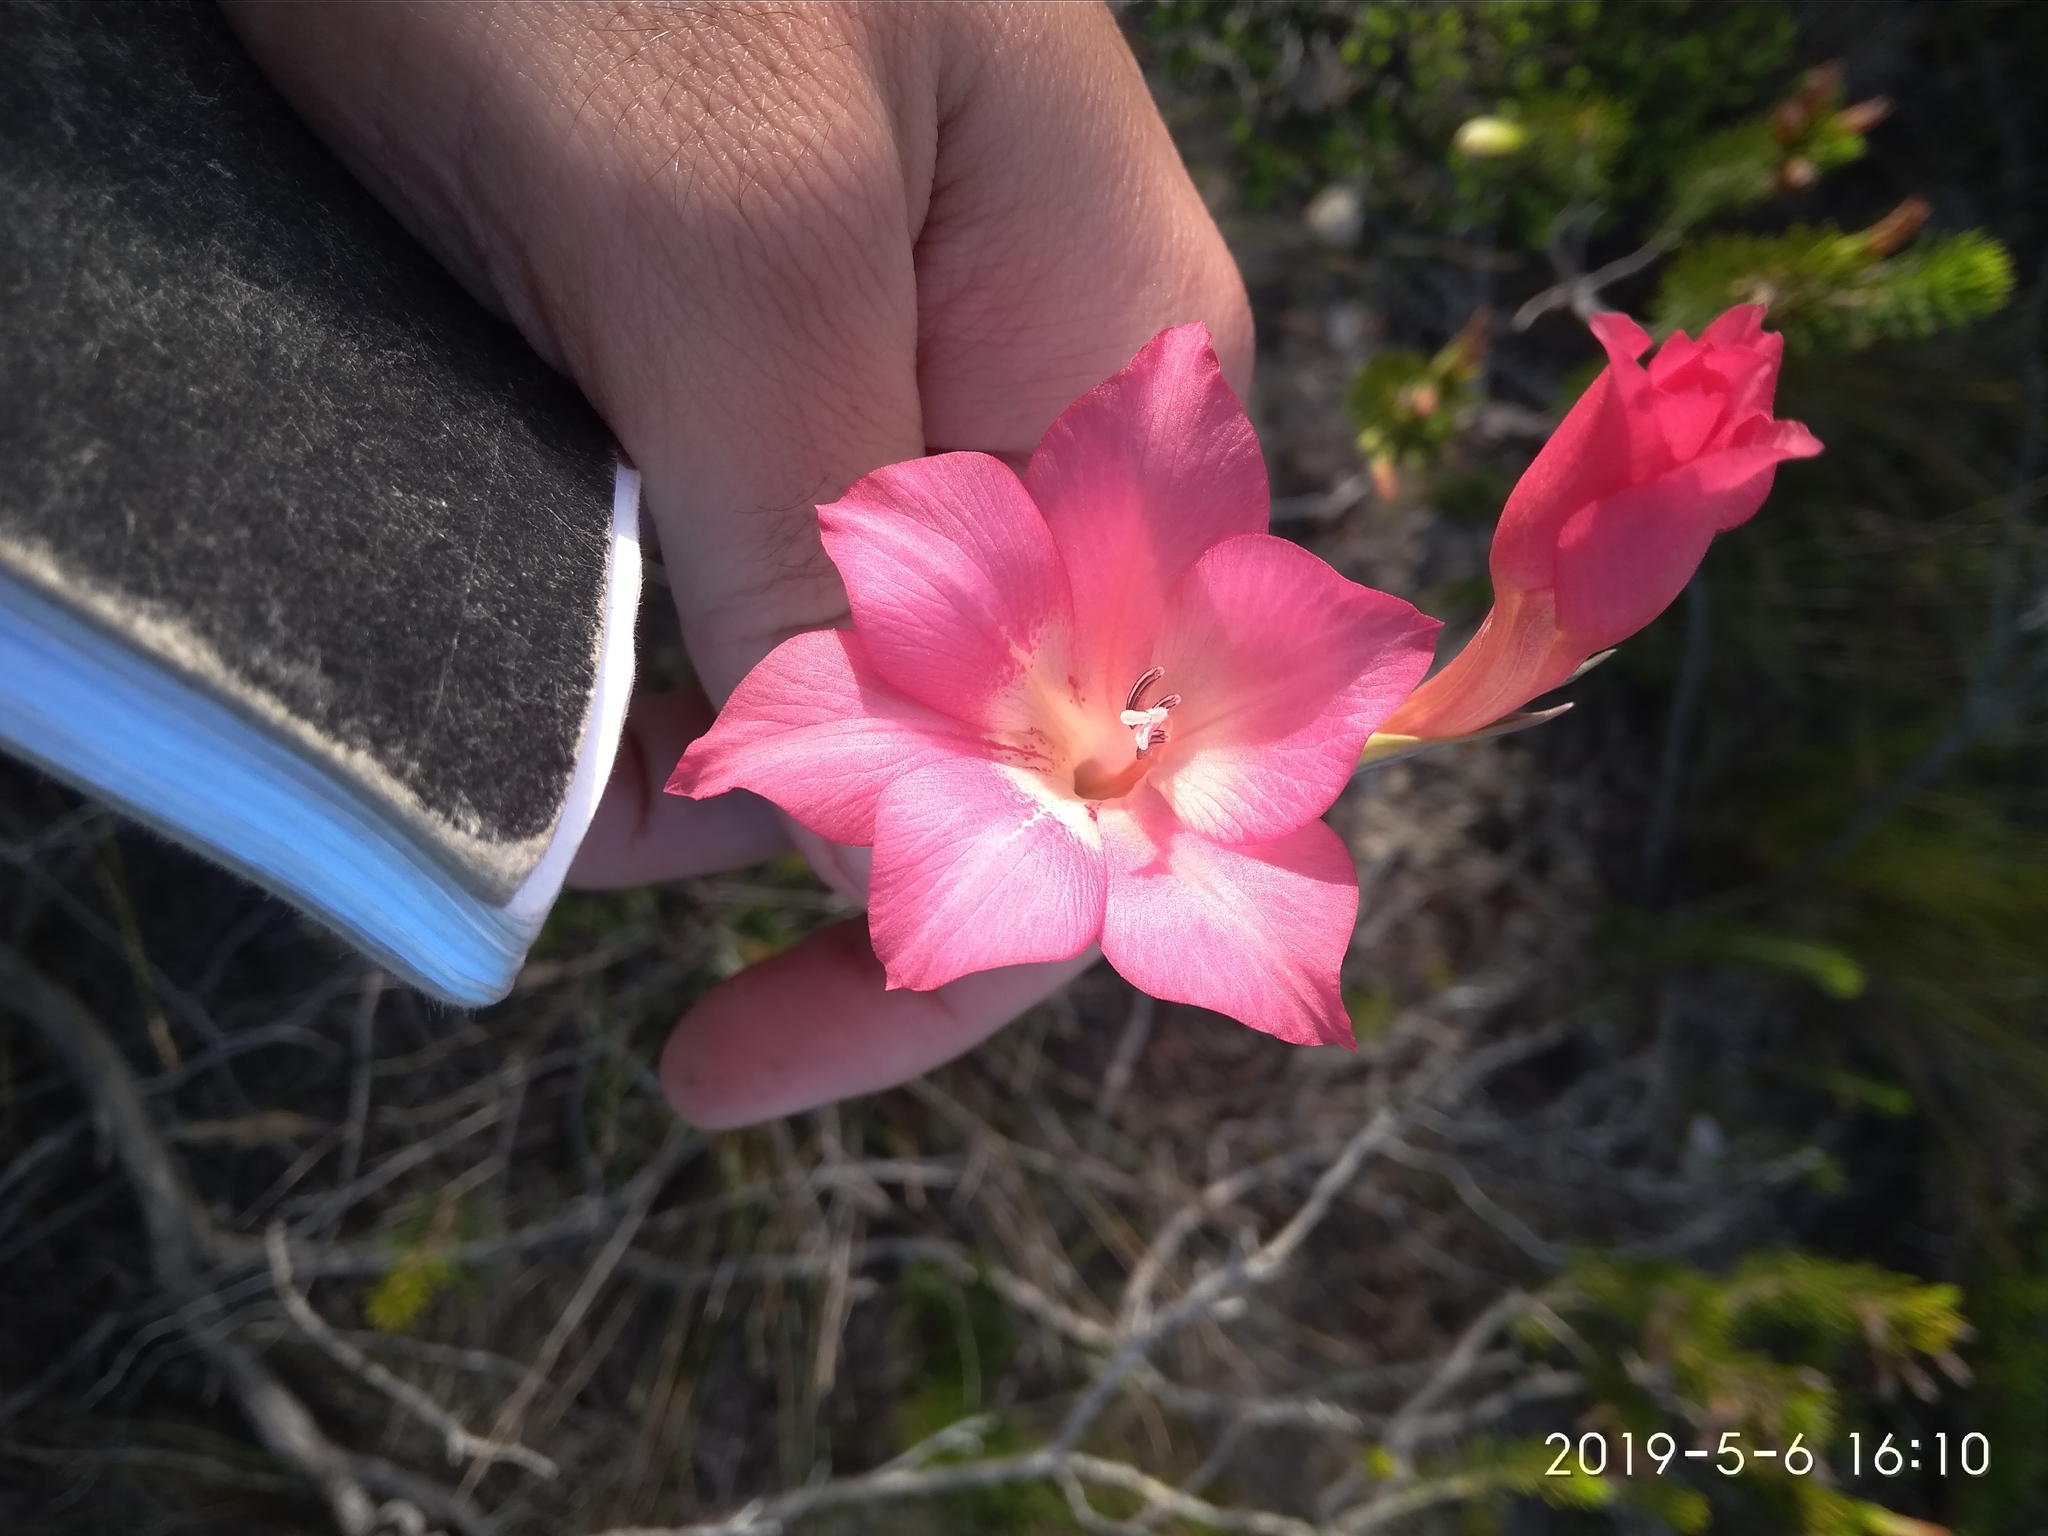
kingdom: Plantae
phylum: Tracheophyta
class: Liliopsida
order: Asparagales
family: Iridaceae
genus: Gladiolus
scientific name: Gladiolus meridionalis
